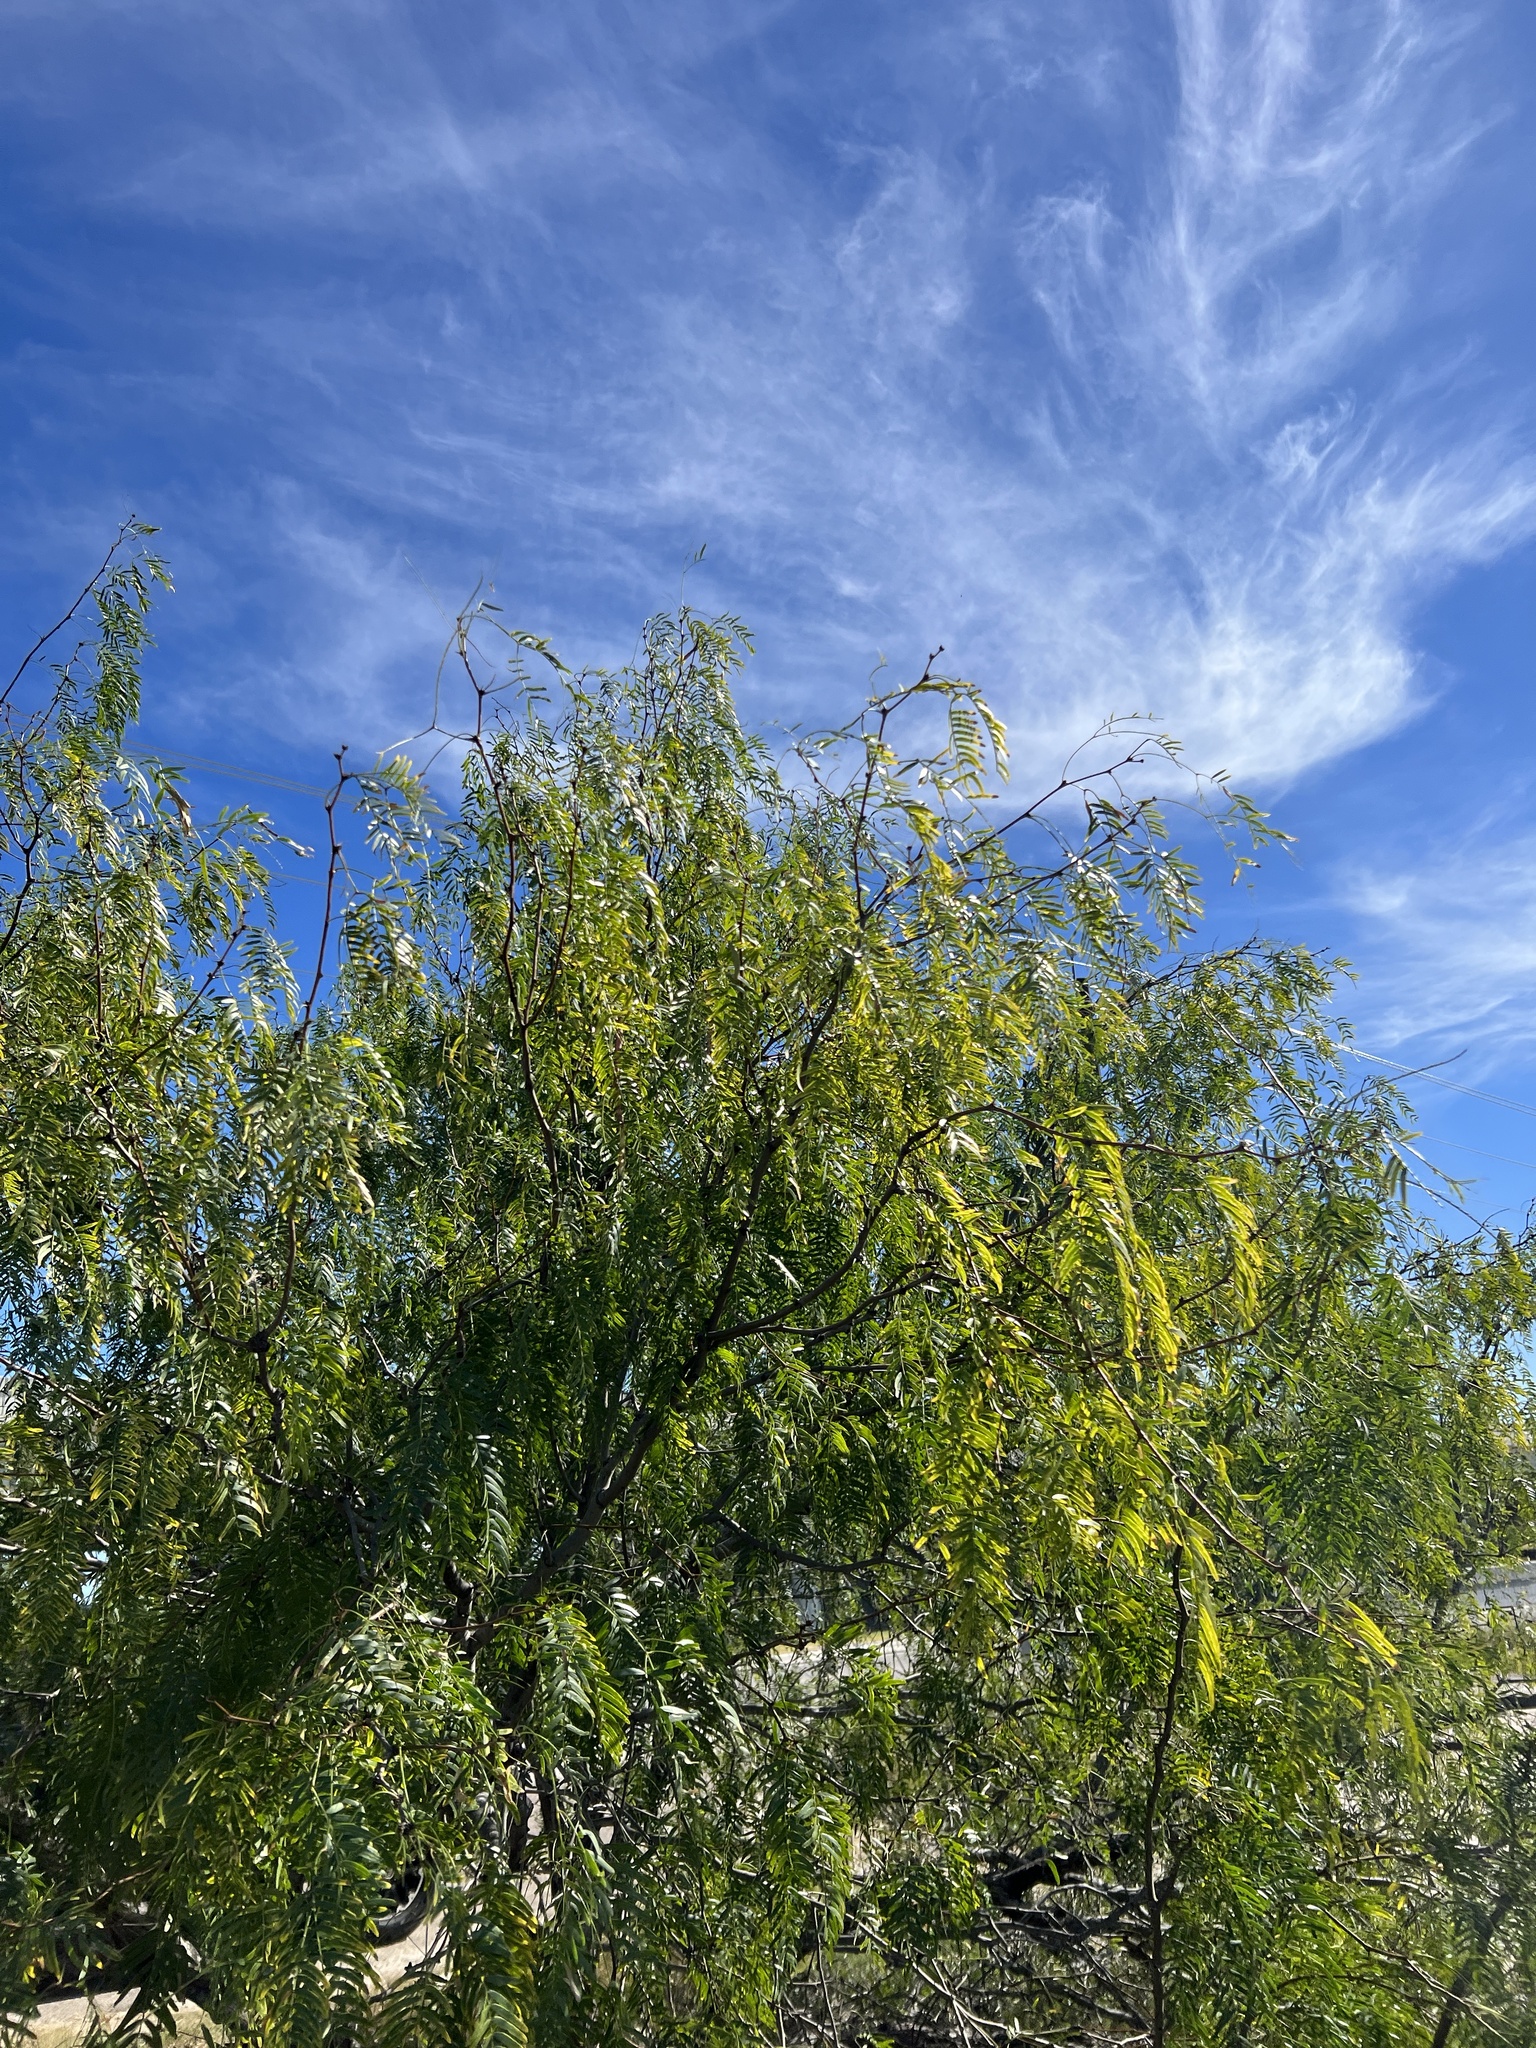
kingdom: Plantae
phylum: Tracheophyta
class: Magnoliopsida
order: Fabales
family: Fabaceae
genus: Prosopis
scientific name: Prosopis glandulosa
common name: Honey mesquite
